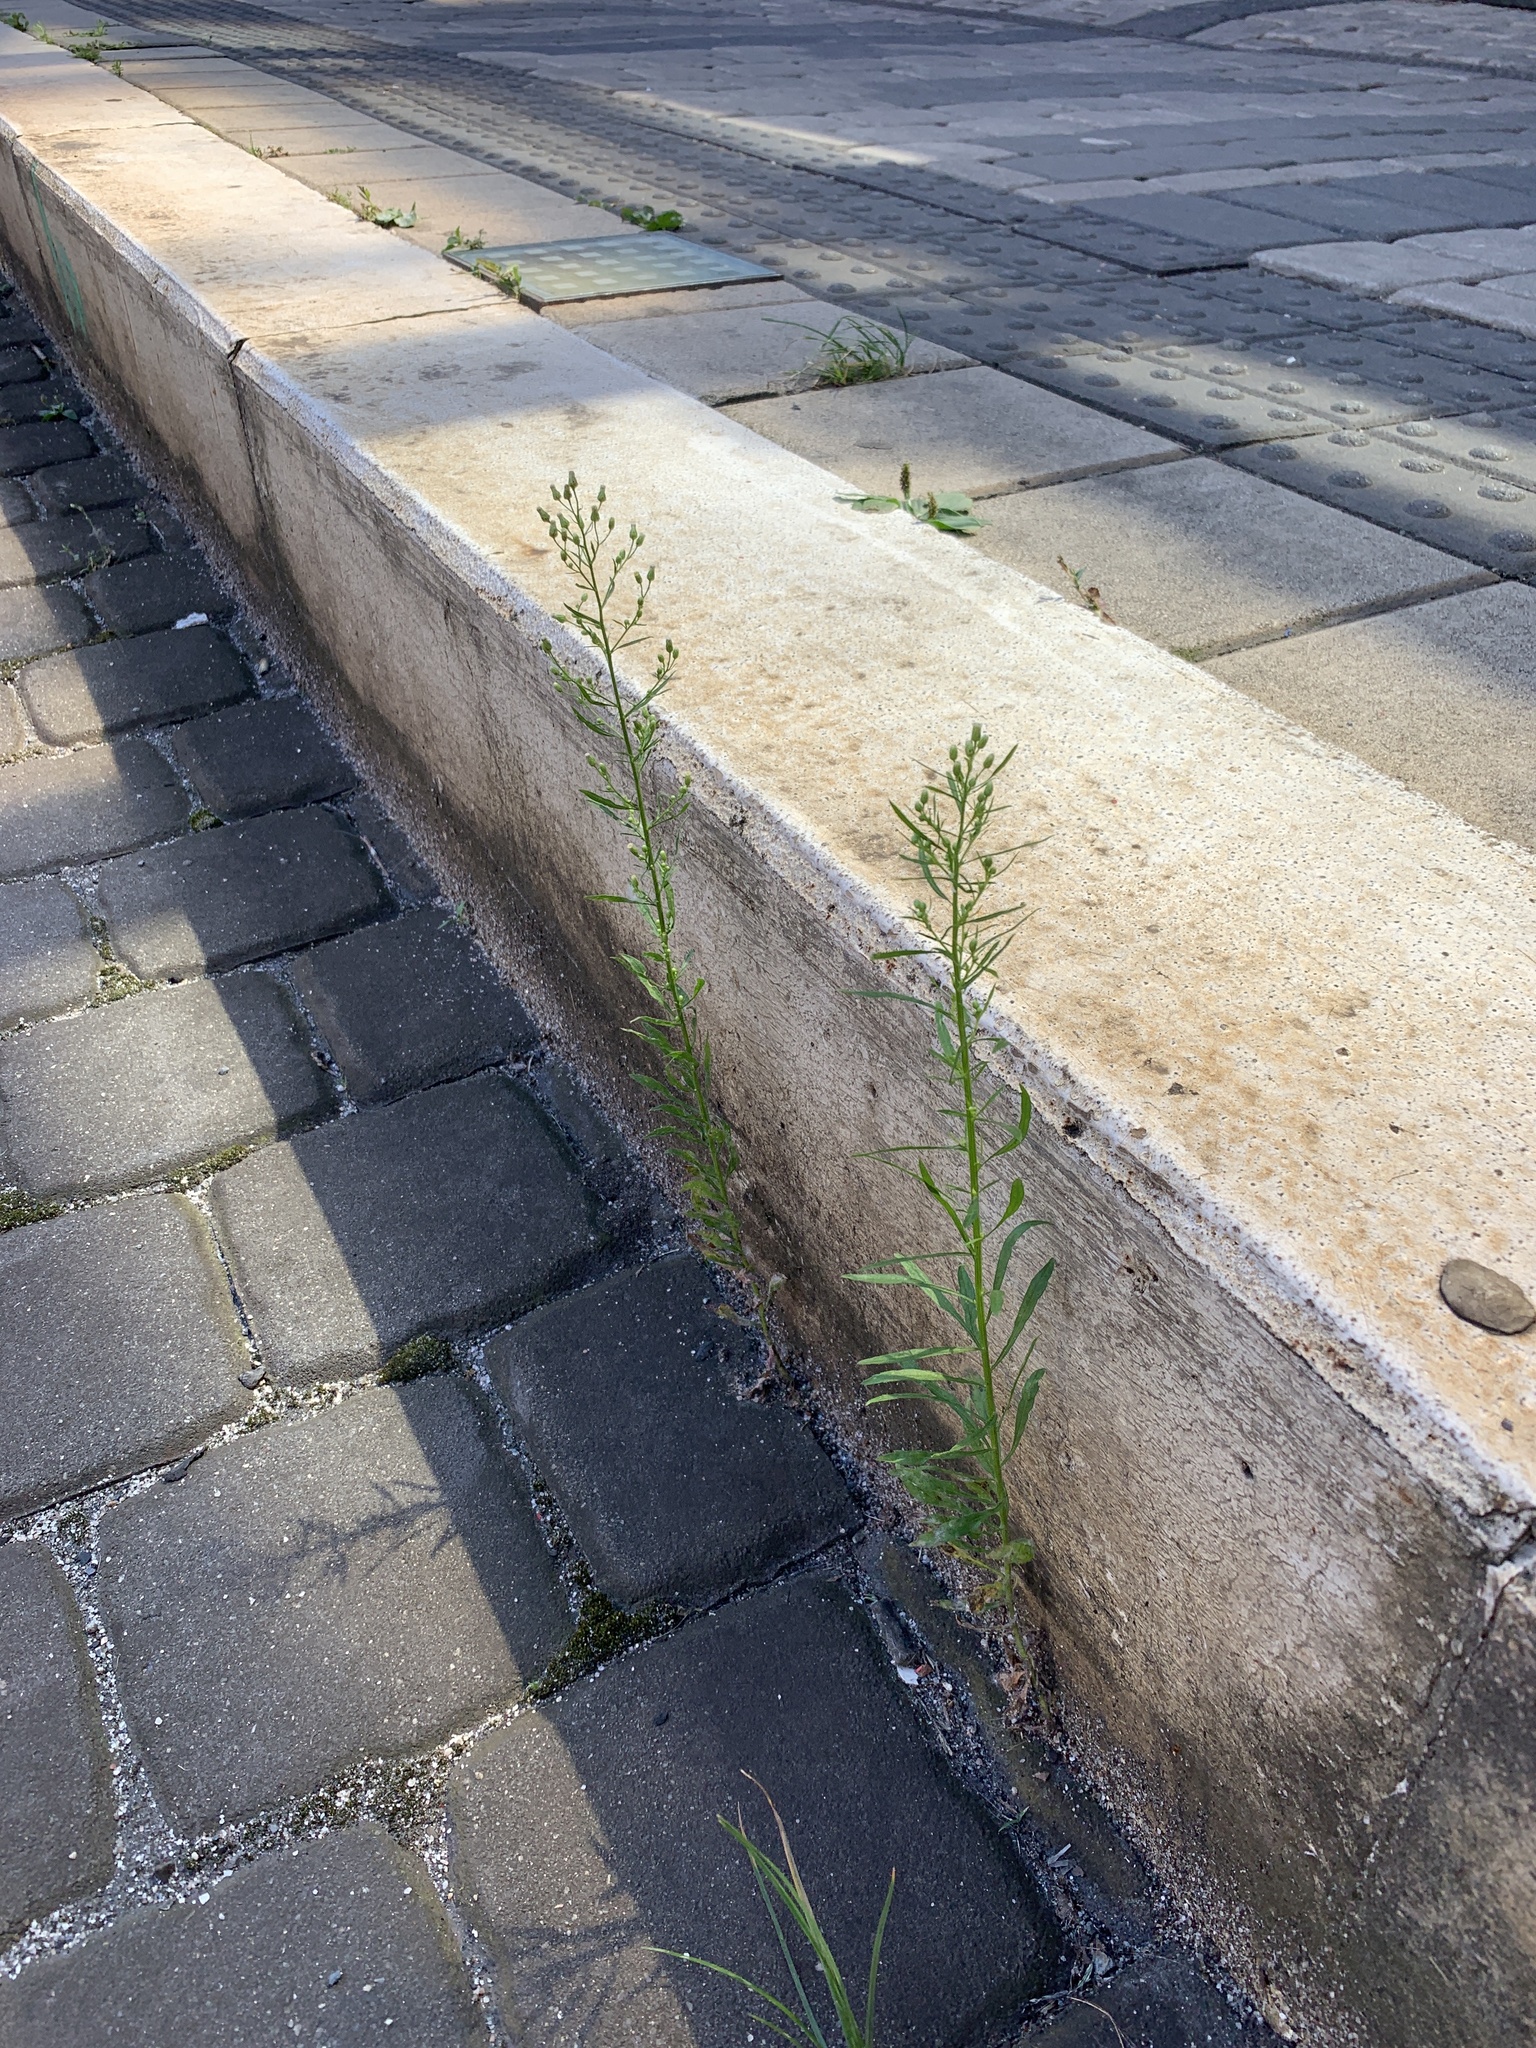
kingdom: Plantae
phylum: Tracheophyta
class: Magnoliopsida
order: Asterales
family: Asteraceae
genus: Erigeron
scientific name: Erigeron canadensis
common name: Canadian fleabane
